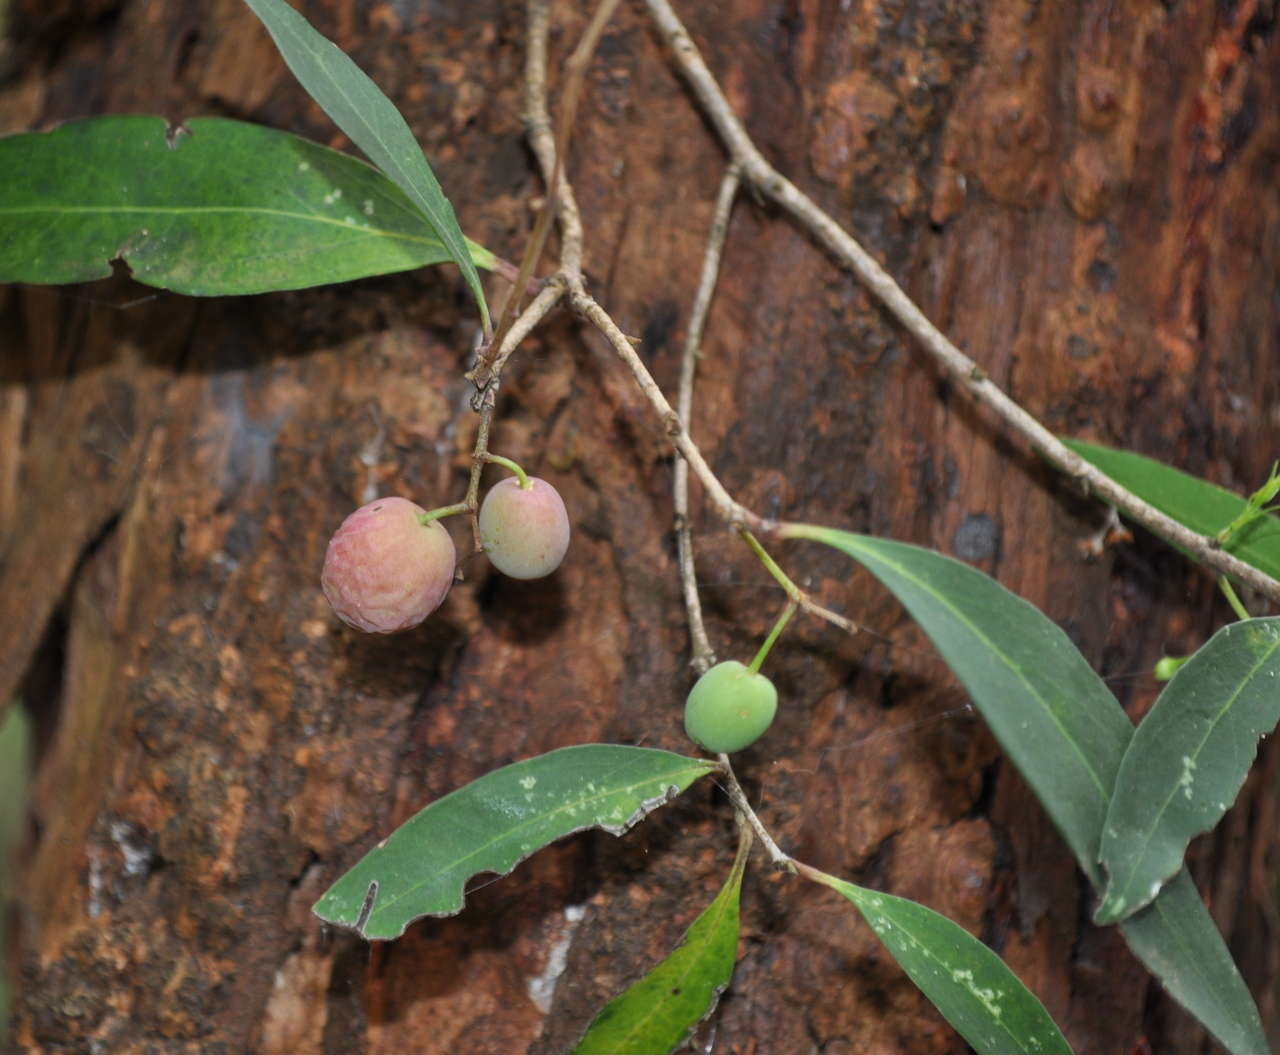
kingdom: Plantae
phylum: Tracheophyta
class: Magnoliopsida
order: Lamiales
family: Oleaceae
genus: Notelaea
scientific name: Notelaea ligustrina
